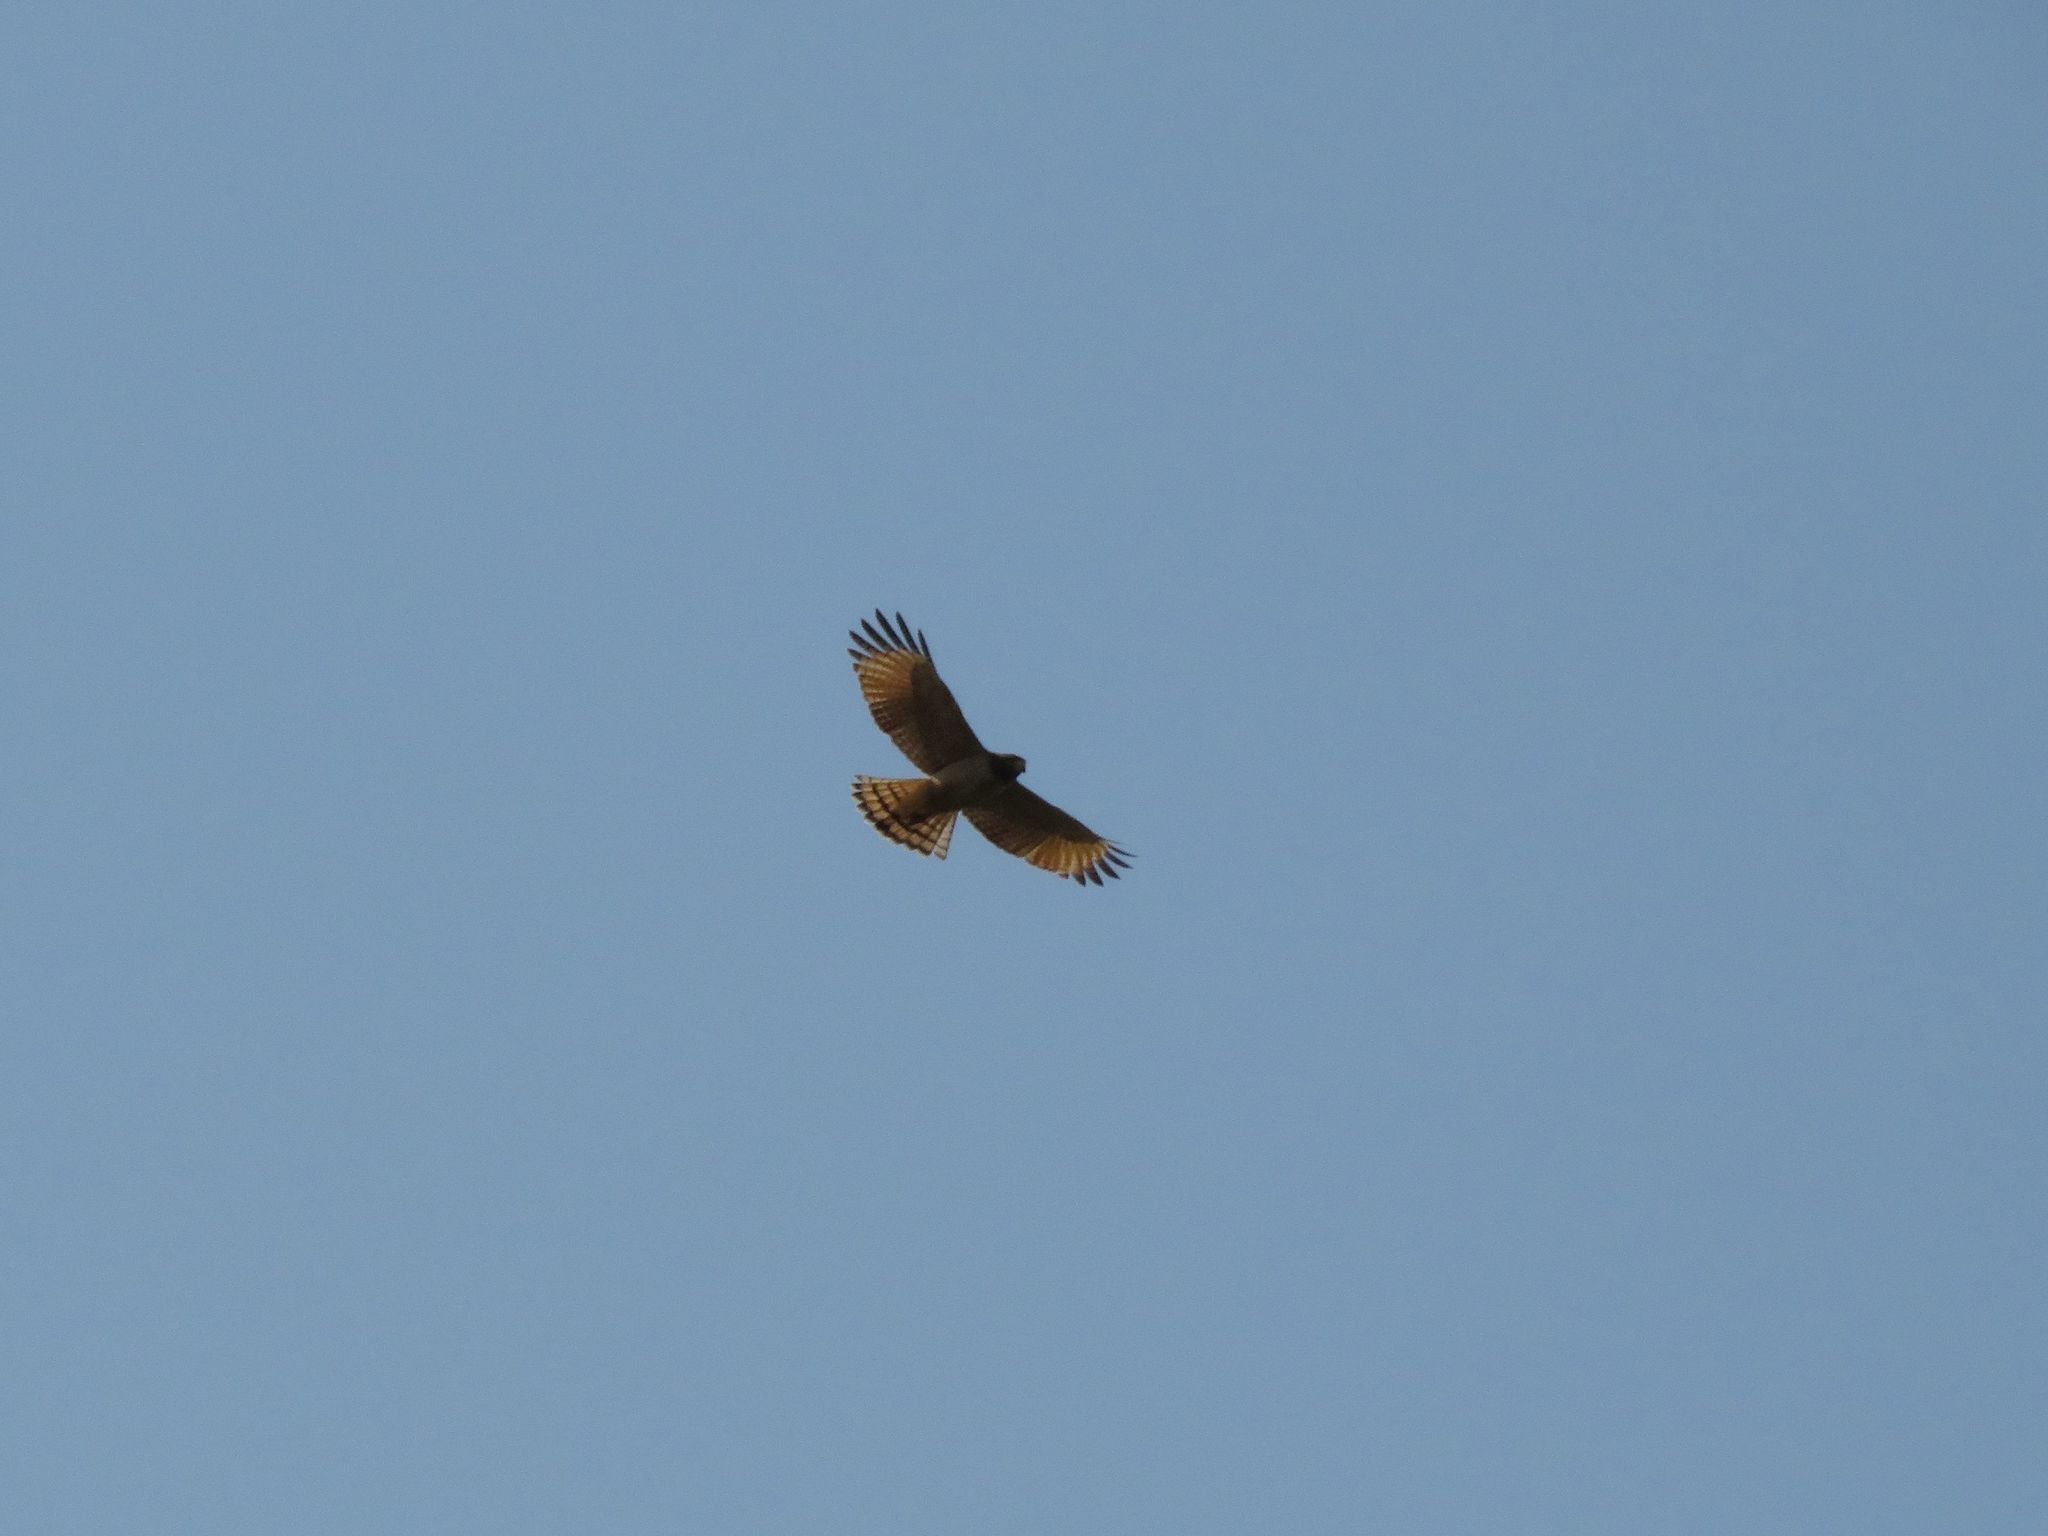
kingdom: Animalia
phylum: Chordata
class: Aves
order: Accipitriformes
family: Accipitridae
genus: Rupornis
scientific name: Rupornis magnirostris
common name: Roadside hawk
